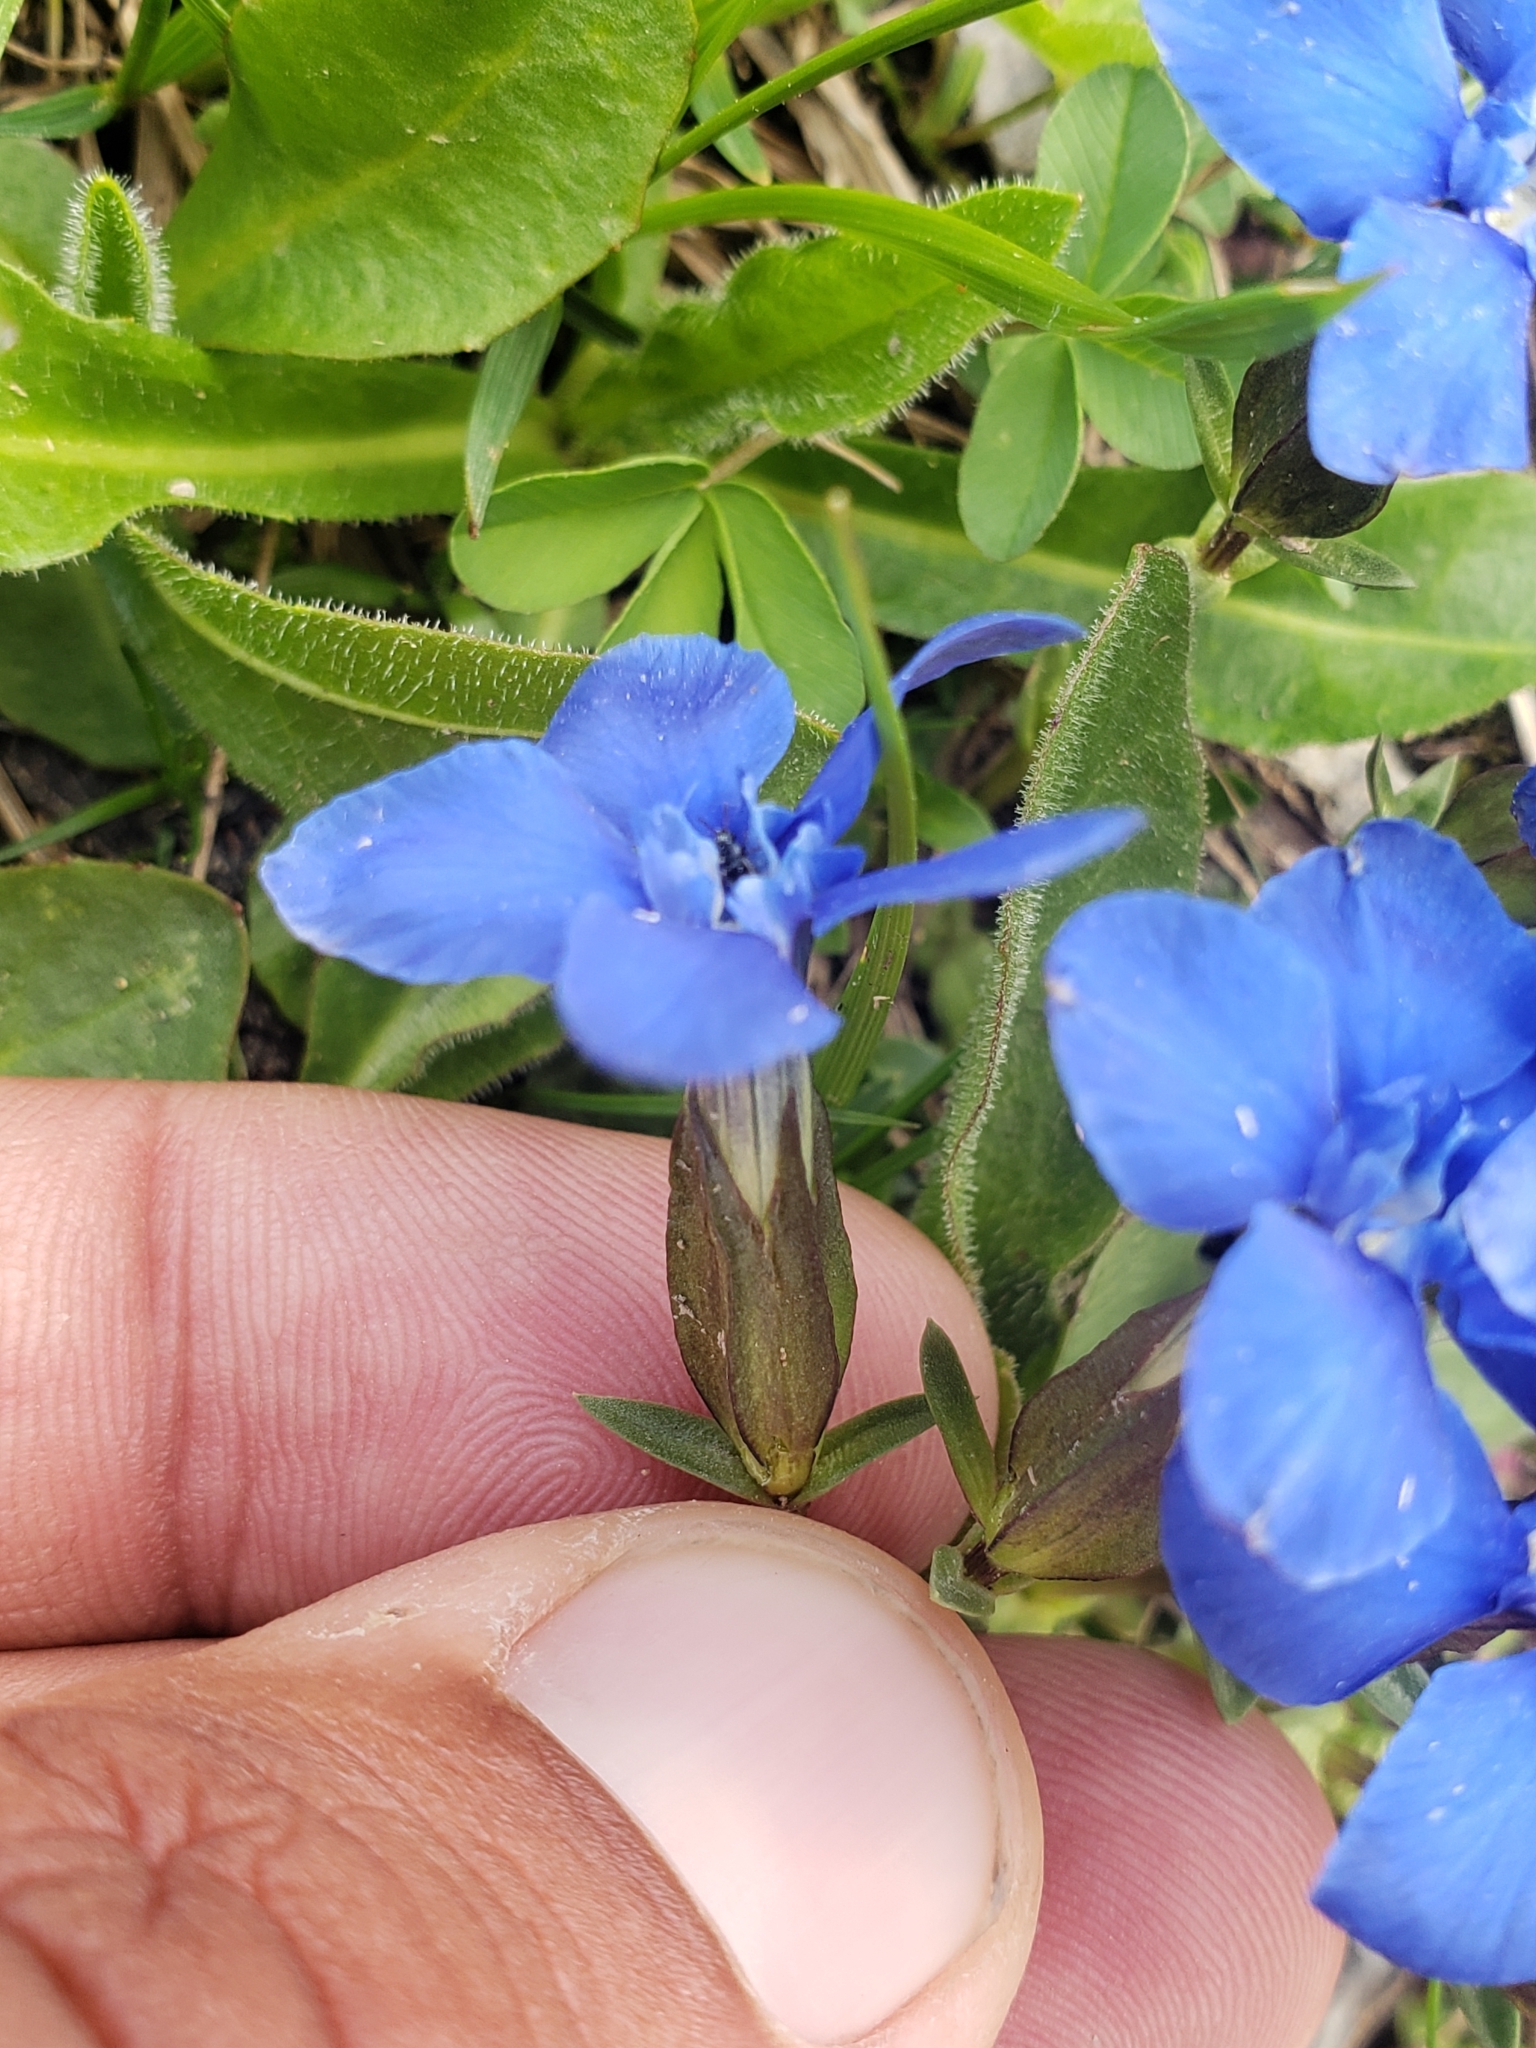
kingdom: Plantae
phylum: Tracheophyta
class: Magnoliopsida
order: Gentianales
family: Gentianaceae
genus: Gentiana
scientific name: Gentiana verna
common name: Spring gentian
